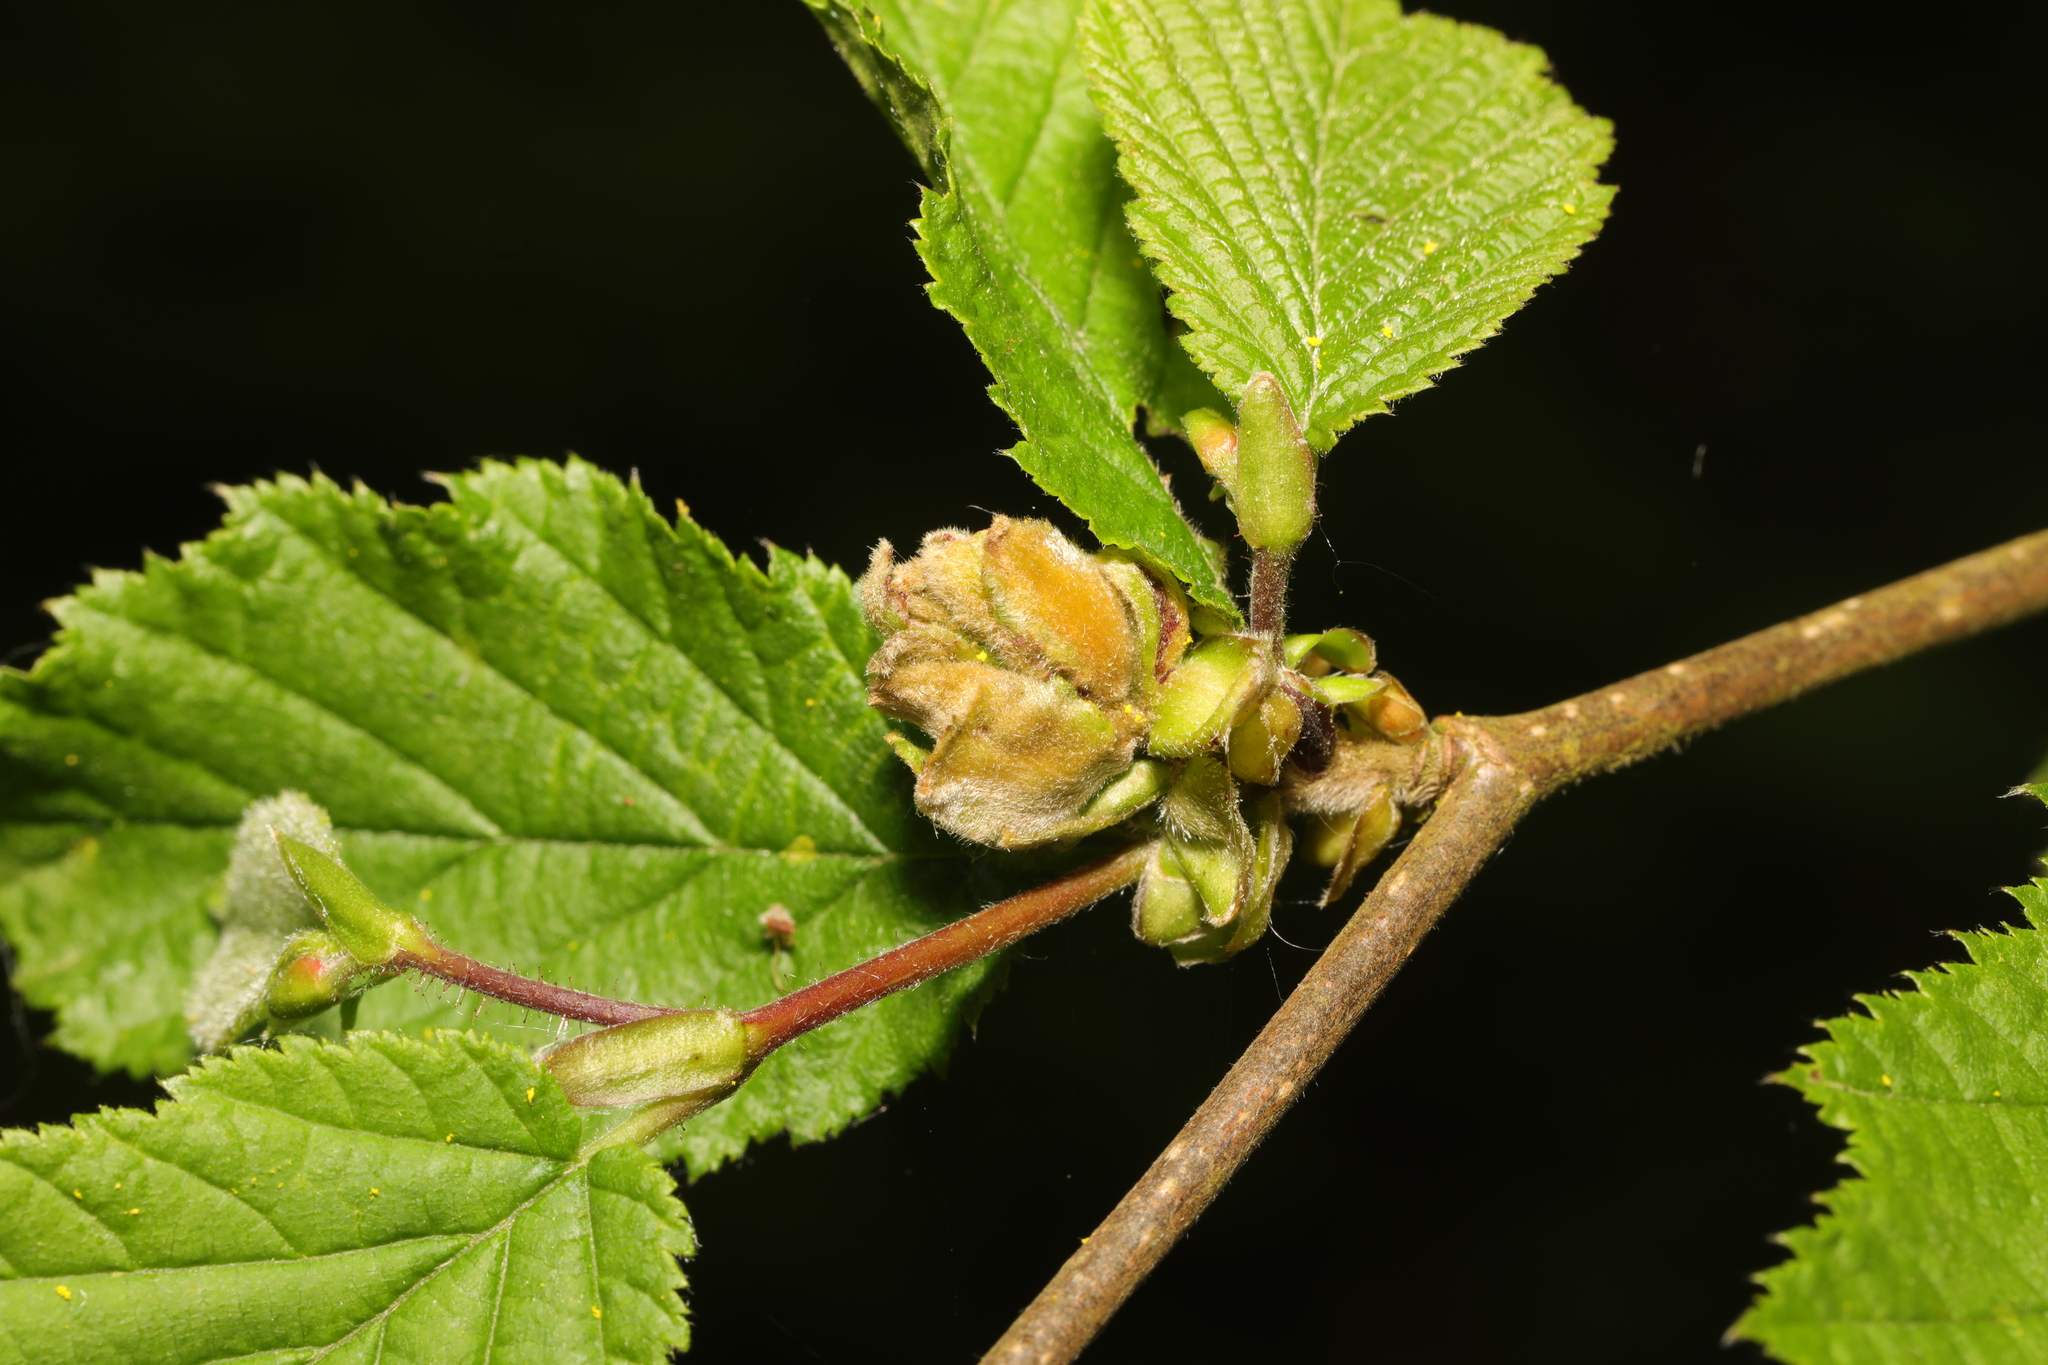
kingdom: Animalia
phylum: Arthropoda
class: Arachnida
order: Trombidiformes
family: Phytoptidae
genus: Phytoptus
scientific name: Phytoptus avellanae
